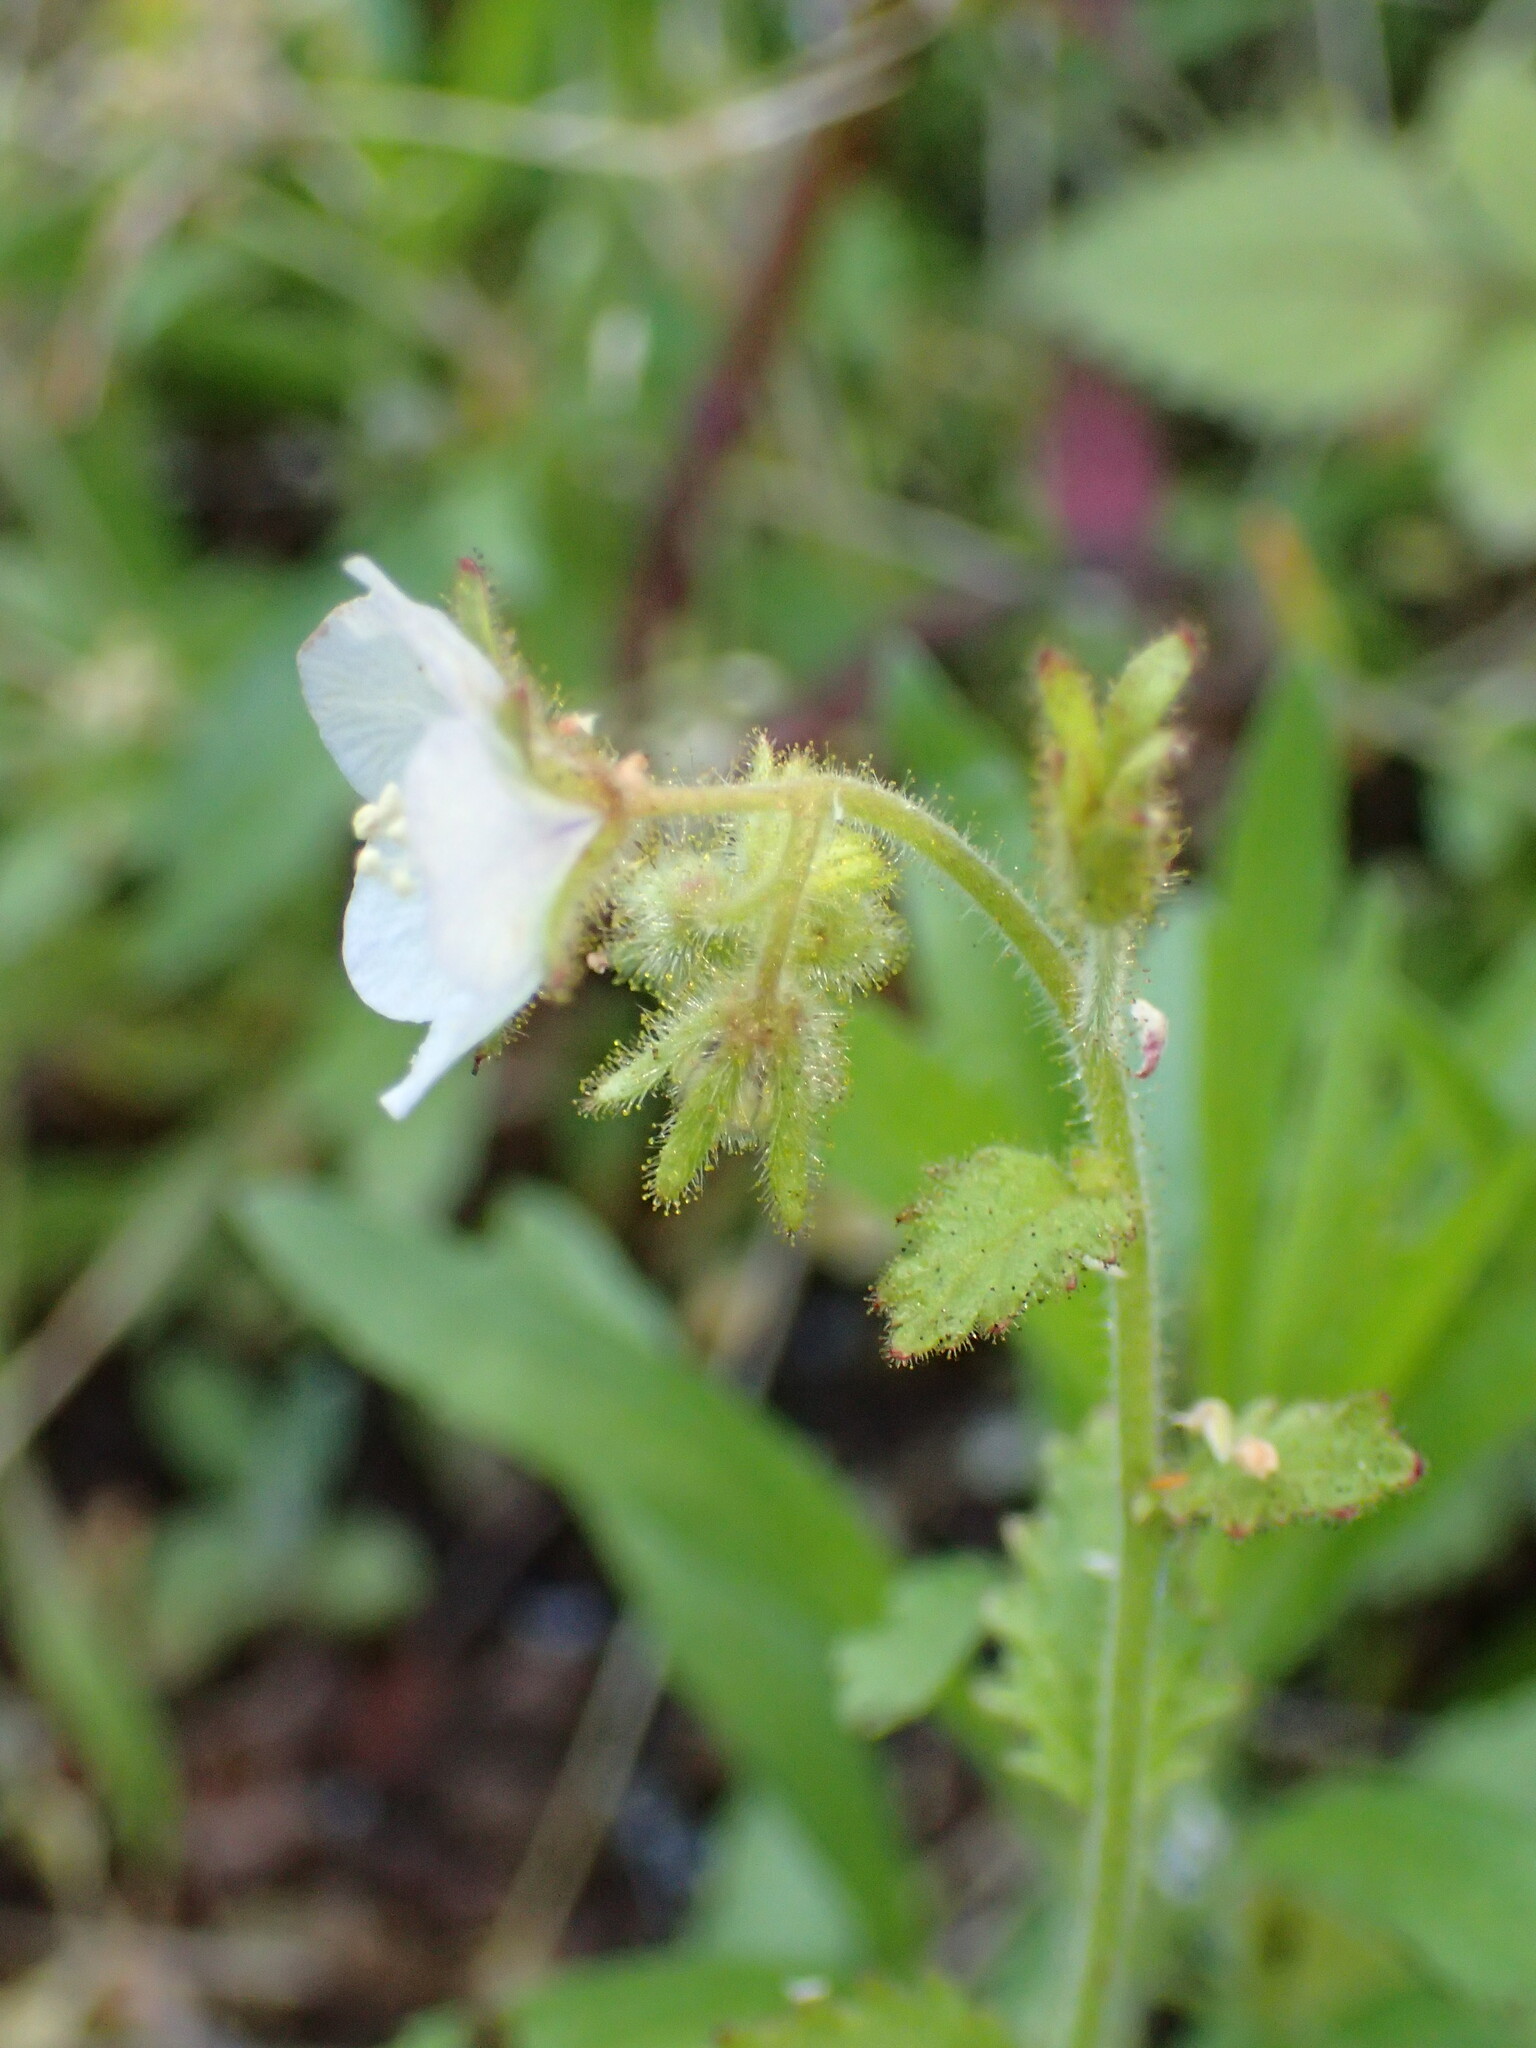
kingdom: Plantae
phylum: Tracheophyta
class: Magnoliopsida
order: Boraginales
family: Hydrophyllaceae
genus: Phacelia
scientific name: Phacelia viscida
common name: Sticky phacelia
